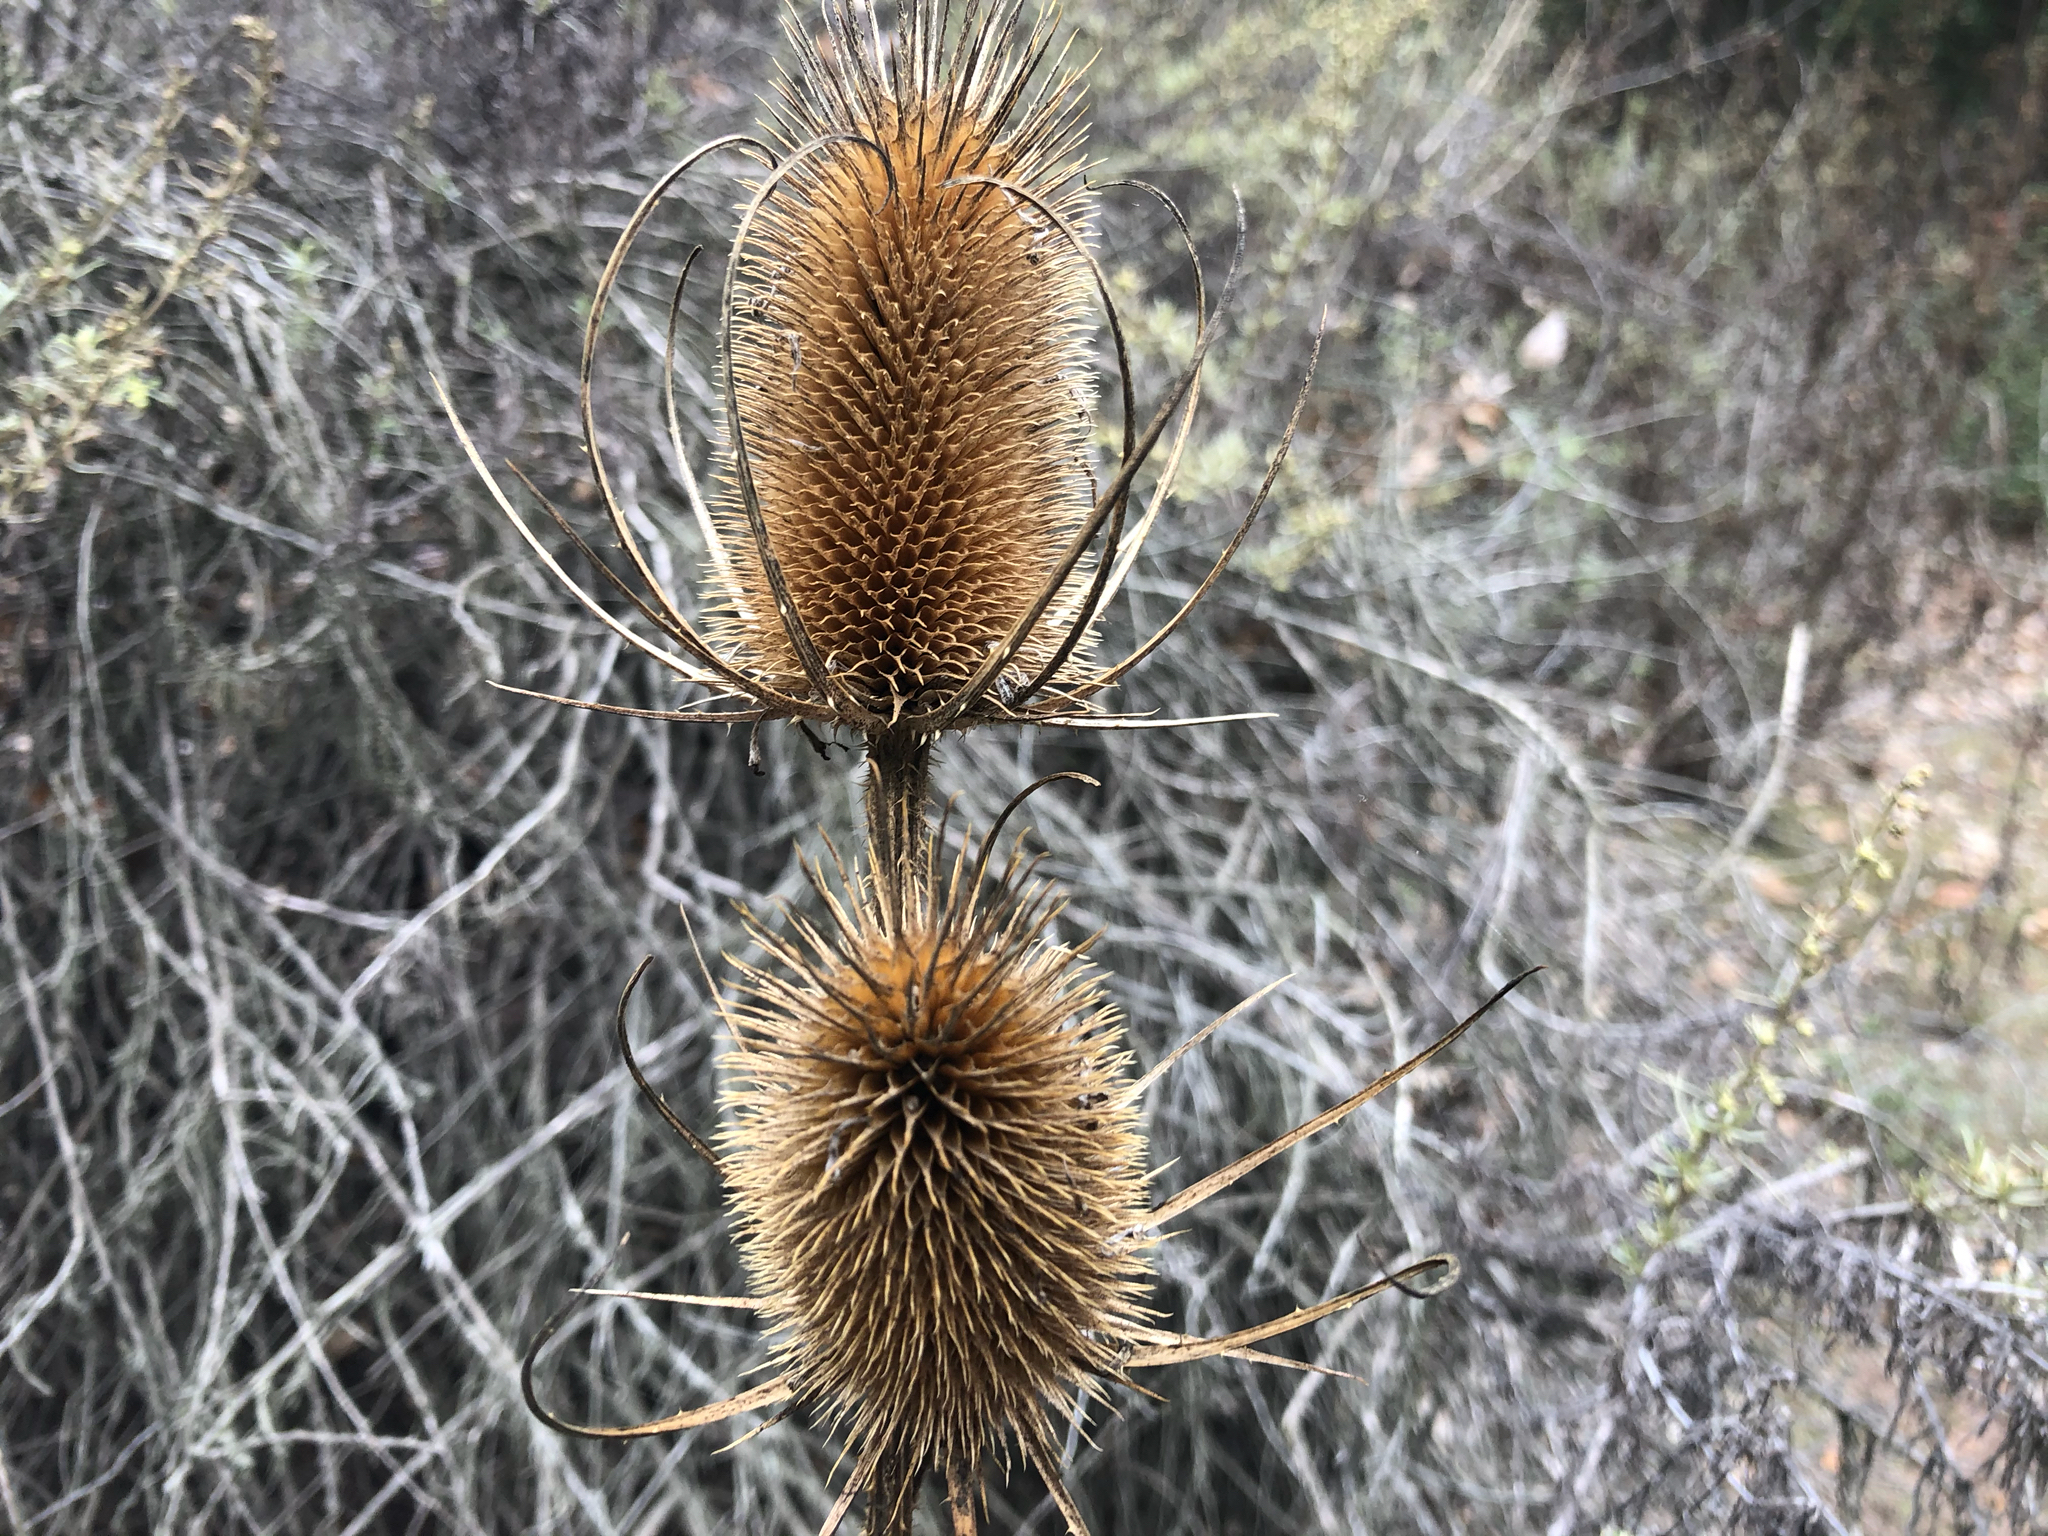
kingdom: Plantae
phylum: Tracheophyta
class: Magnoliopsida
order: Dipsacales
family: Caprifoliaceae
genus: Dipsacus
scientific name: Dipsacus fullonum
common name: Teasel
